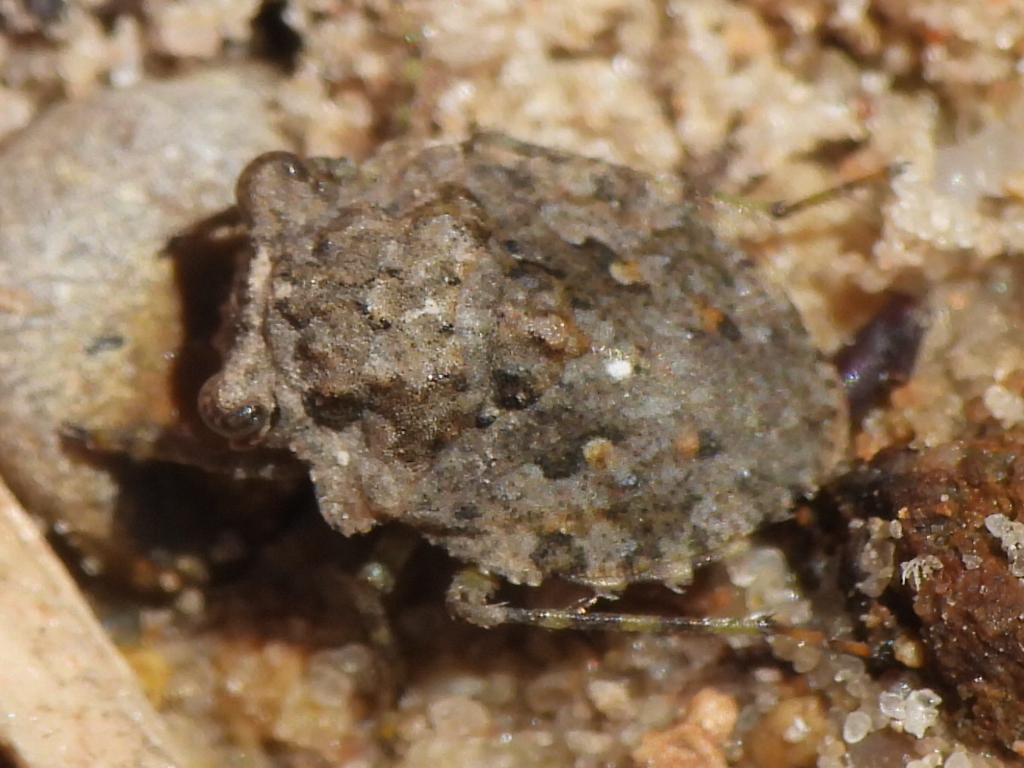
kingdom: Animalia
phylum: Arthropoda
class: Insecta
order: Hemiptera
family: Gelastocoridae
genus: Gelastocoris
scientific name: Gelastocoris oculatus
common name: Toad bug
